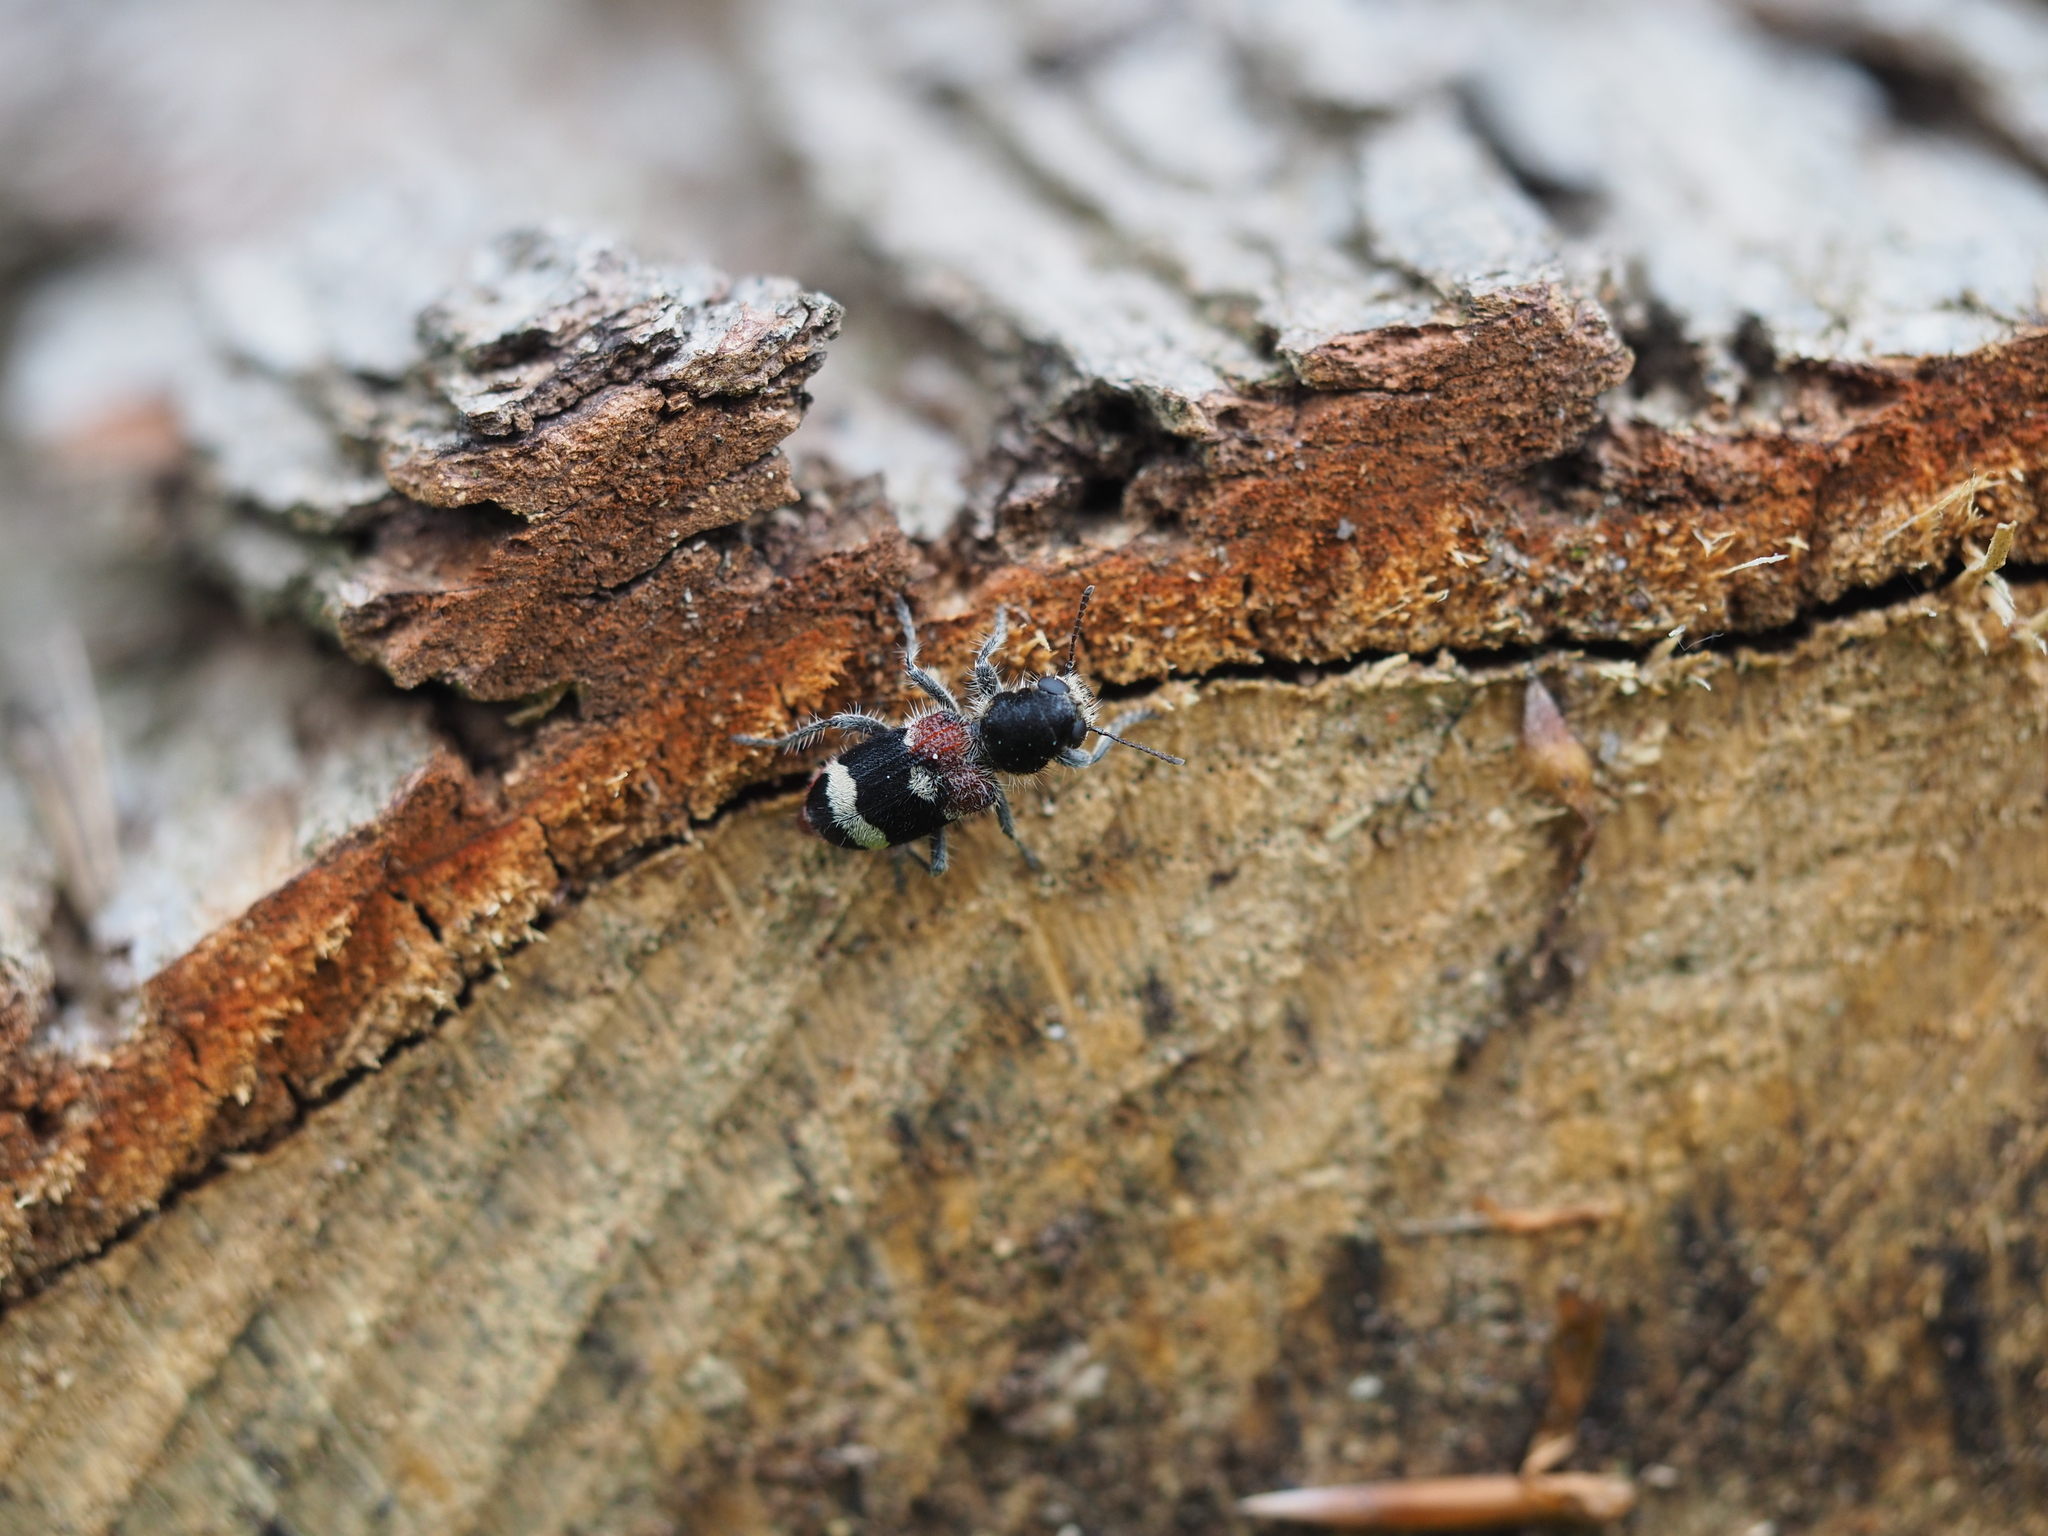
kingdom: Animalia
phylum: Arthropoda
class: Insecta
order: Coleoptera
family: Cleridae
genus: Clerus
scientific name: Clerus mutillarius
